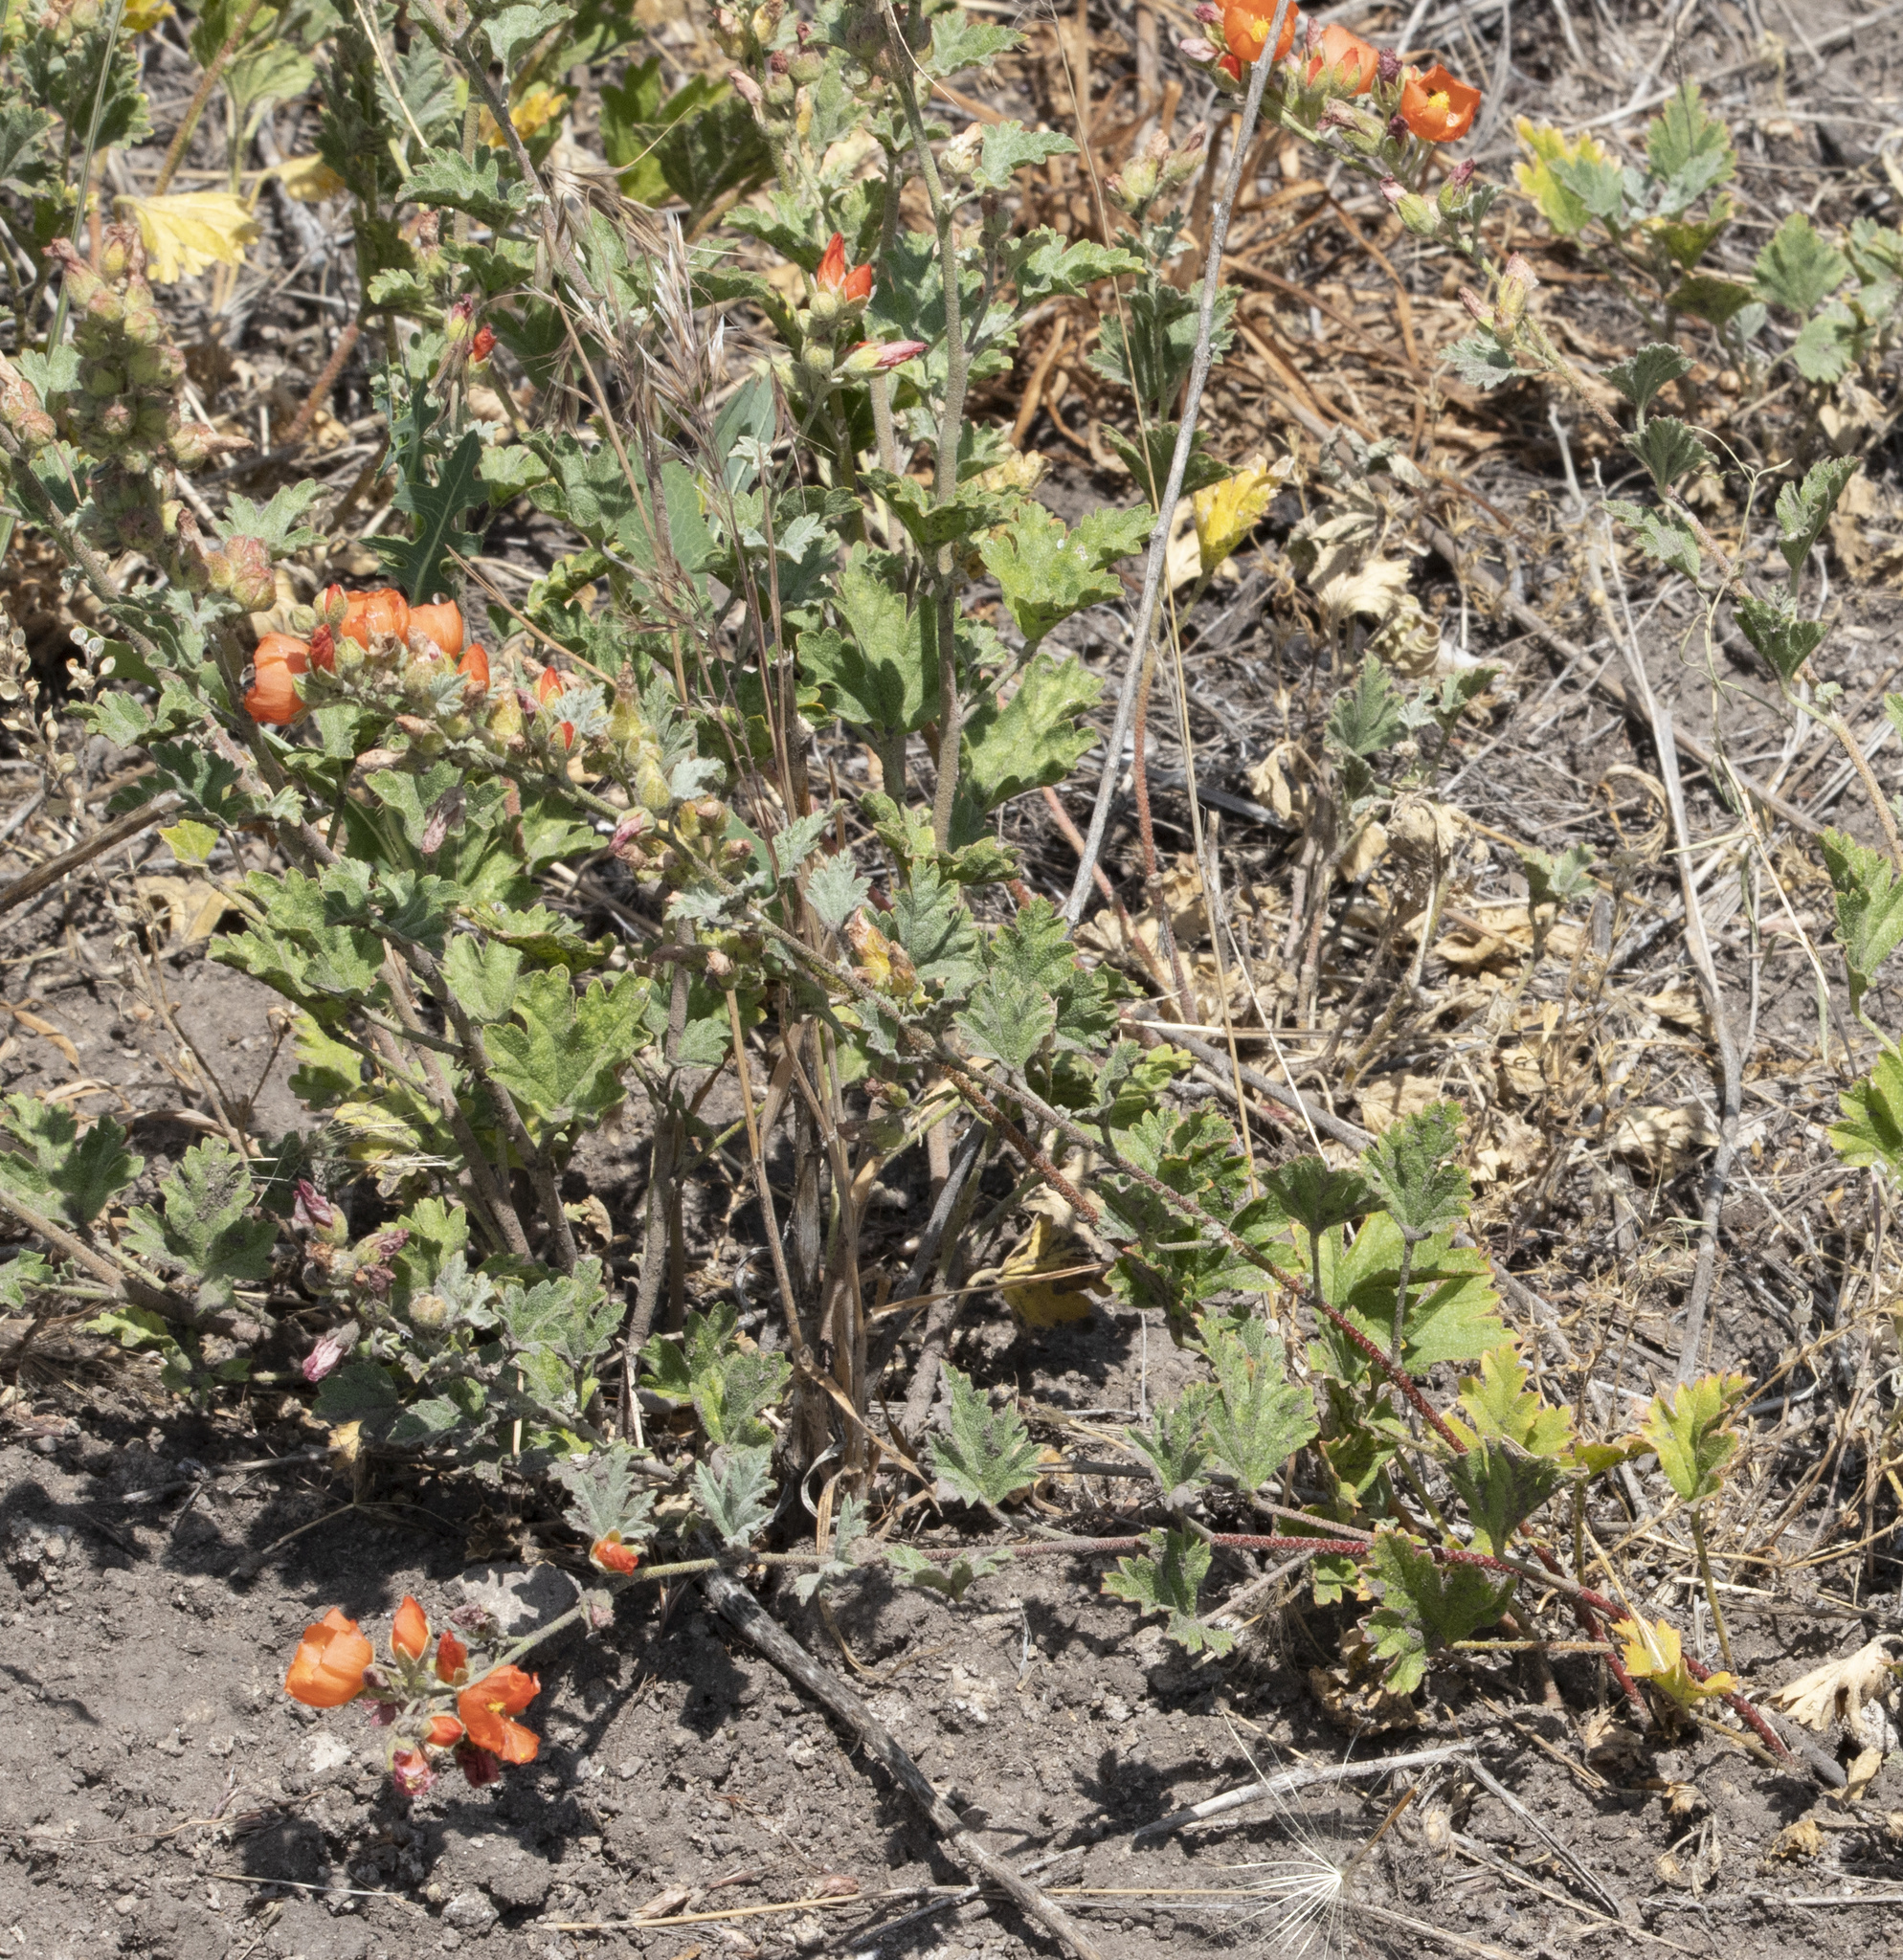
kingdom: Plantae
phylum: Tracheophyta
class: Magnoliopsida
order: Malvales
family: Malvaceae
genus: Sphaeralcea
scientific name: Sphaeralcea munroana
